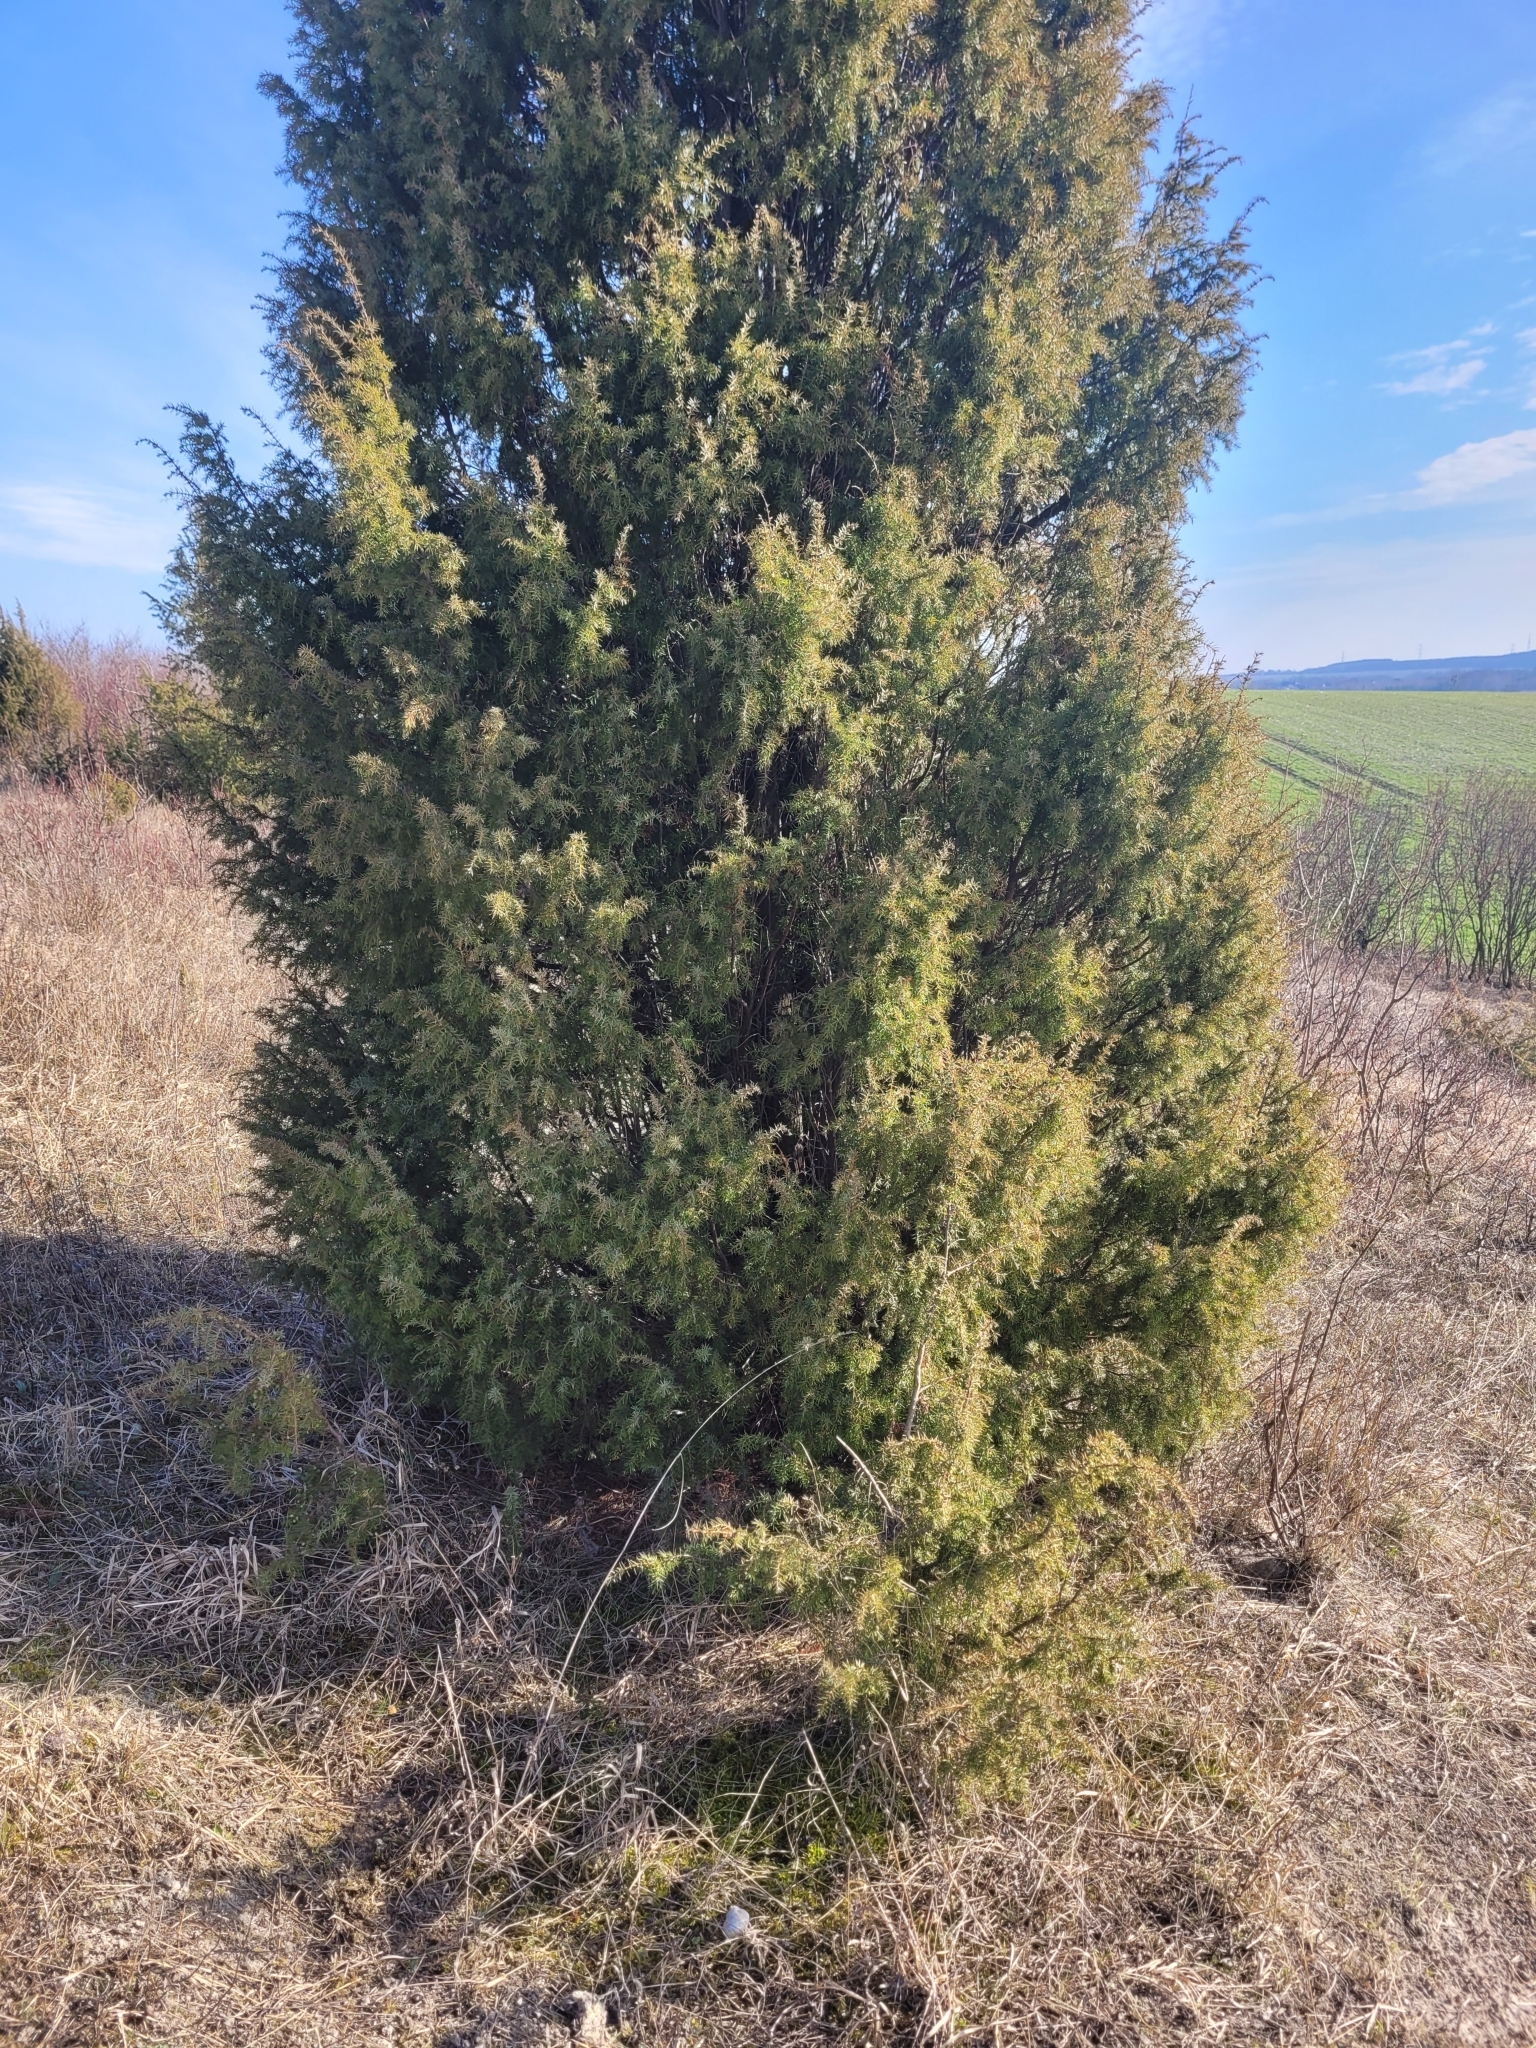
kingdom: Plantae
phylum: Tracheophyta
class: Pinopsida
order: Pinales
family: Cupressaceae
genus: Juniperus
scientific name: Juniperus communis
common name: Common juniper
